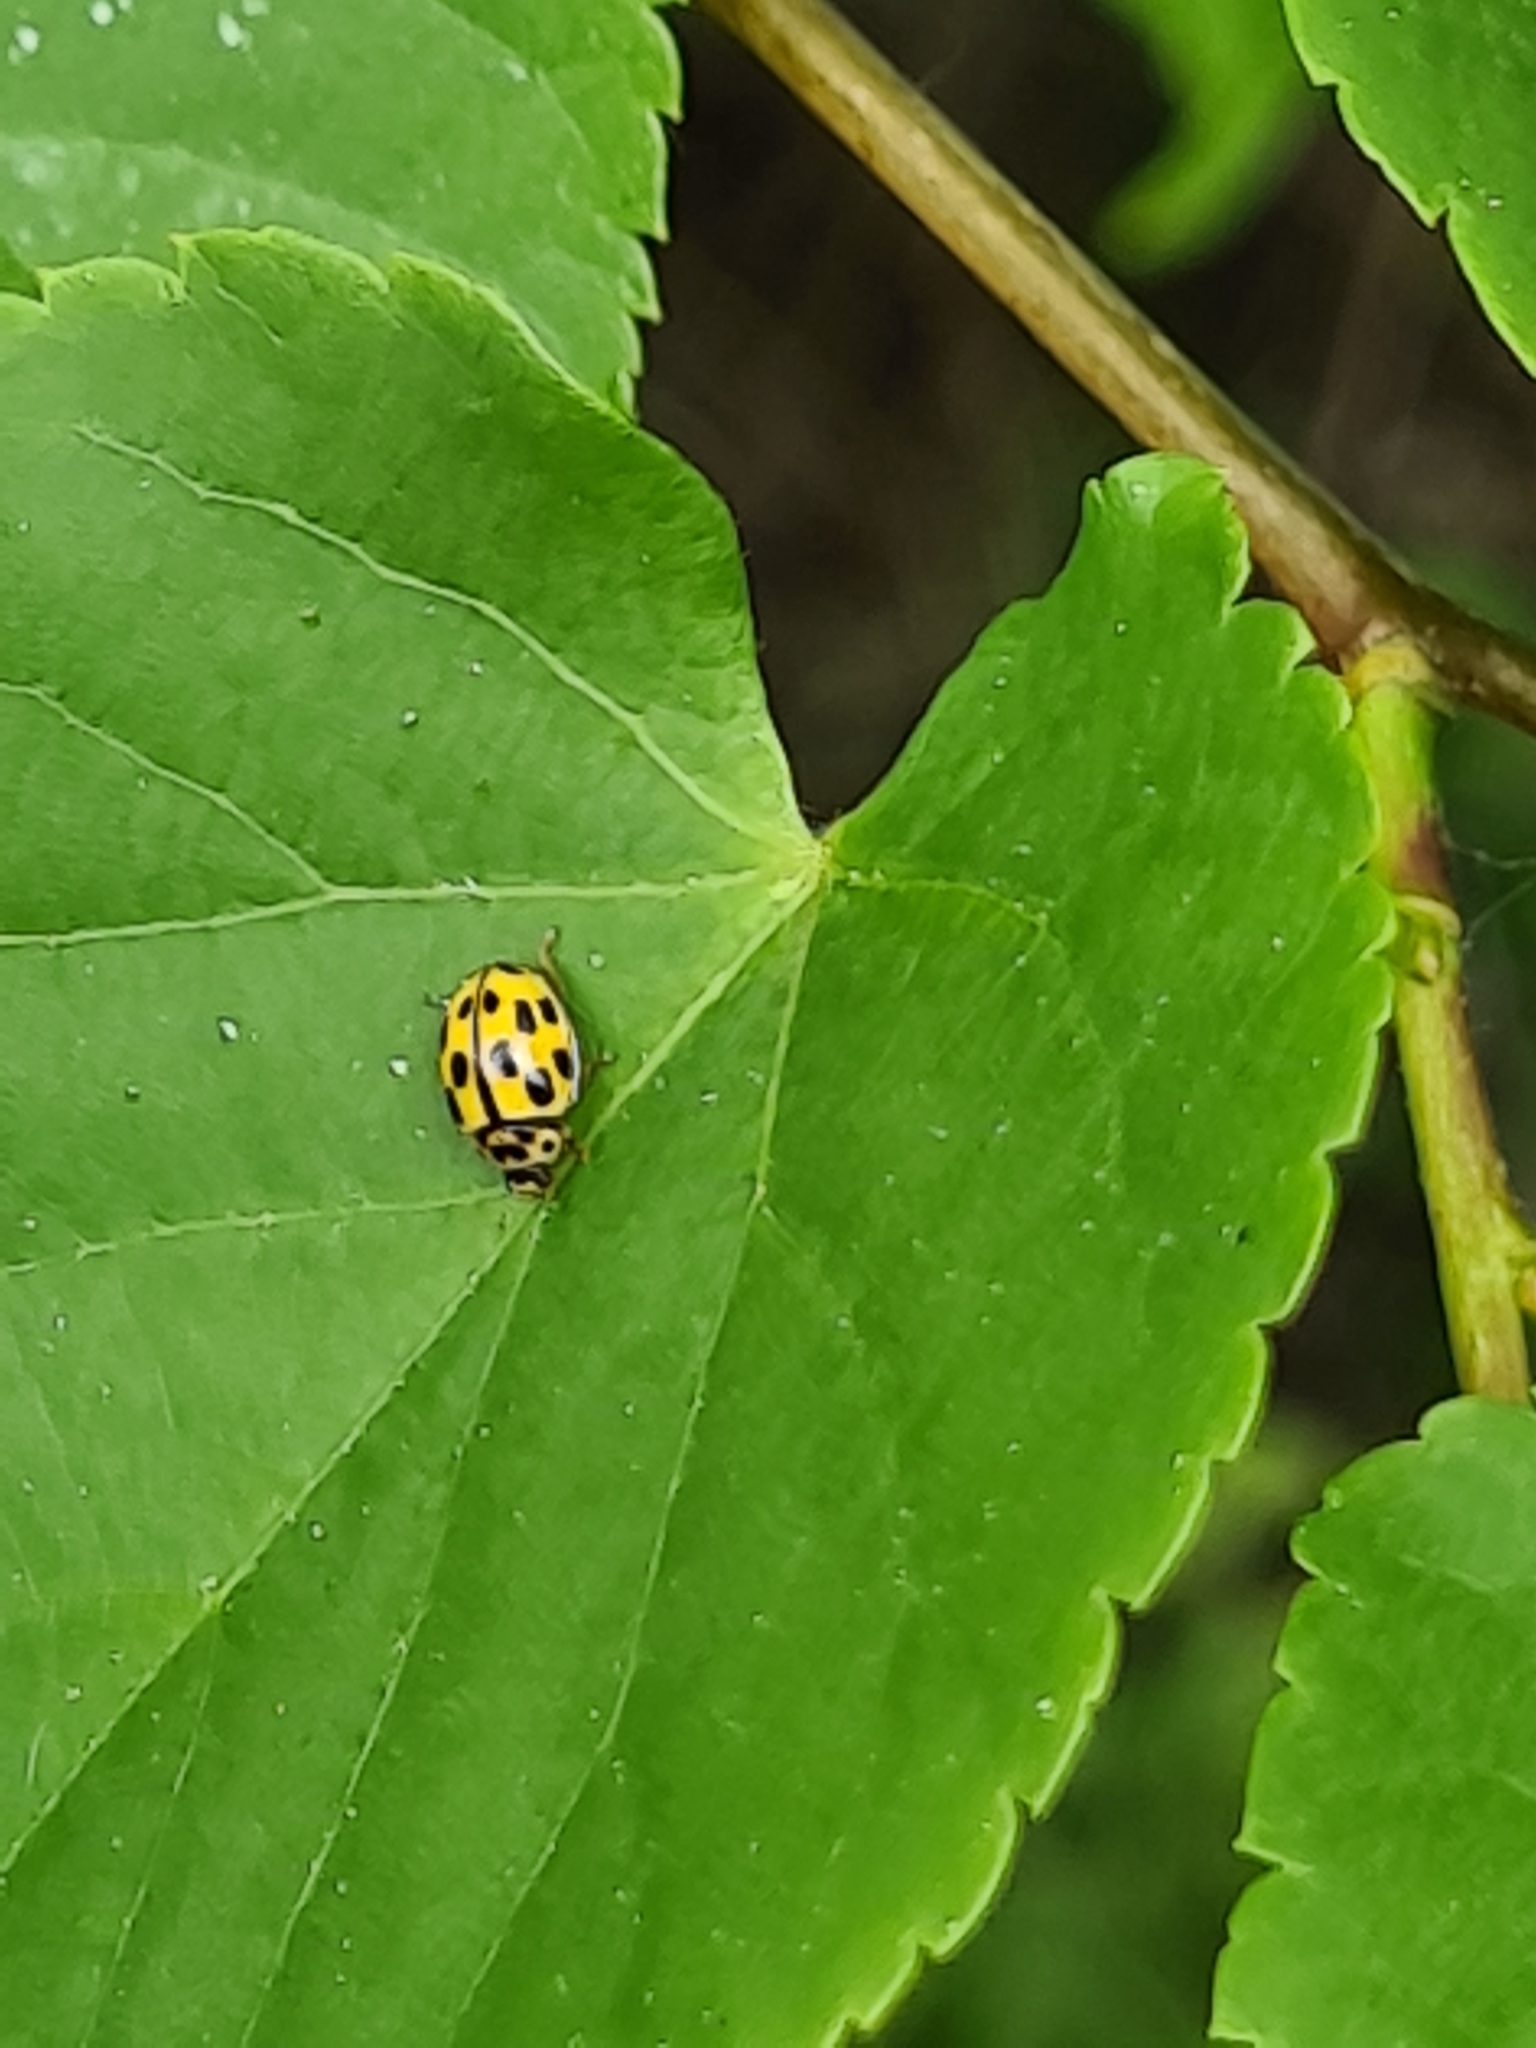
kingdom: Animalia
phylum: Arthropoda
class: Insecta
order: Coleoptera
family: Coccinellidae
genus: Propylaea
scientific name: Propylaea quatuordecimpunctata
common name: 14-spotted ladybird beetle
